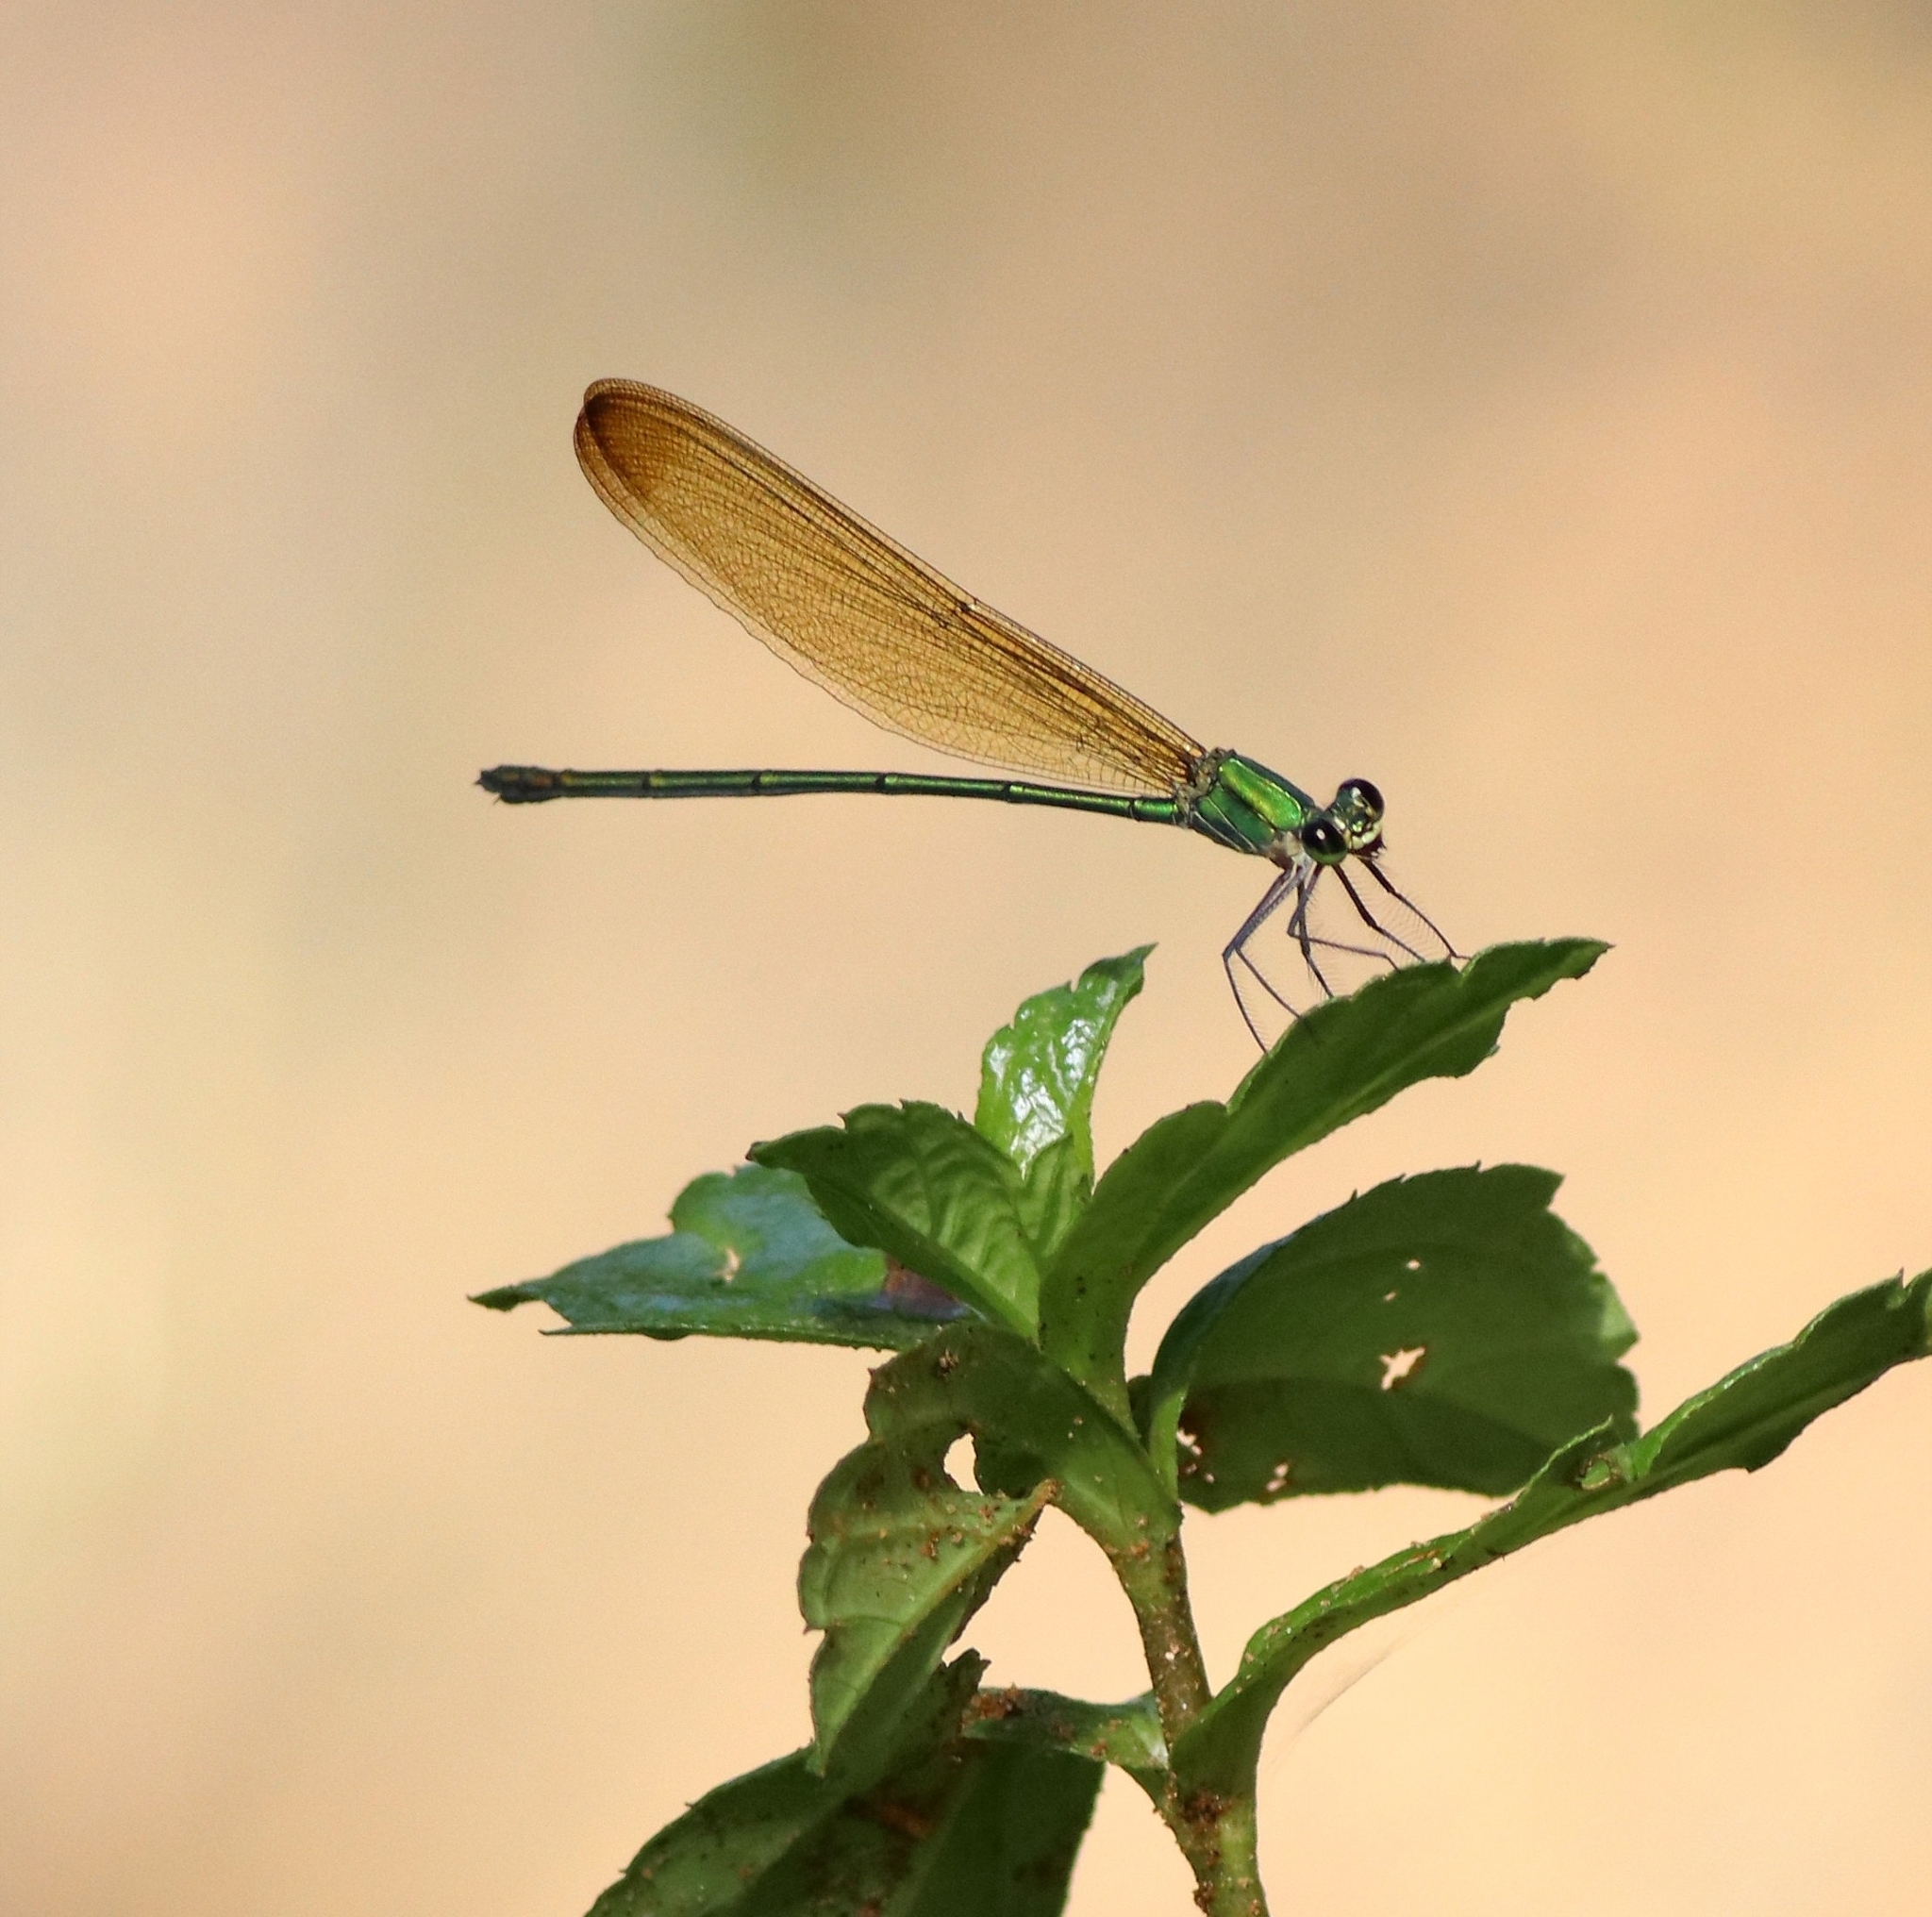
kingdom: Animalia
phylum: Arthropoda
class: Insecta
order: Odonata
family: Calopterygidae
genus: Vestalis
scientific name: Vestalis gracilis
